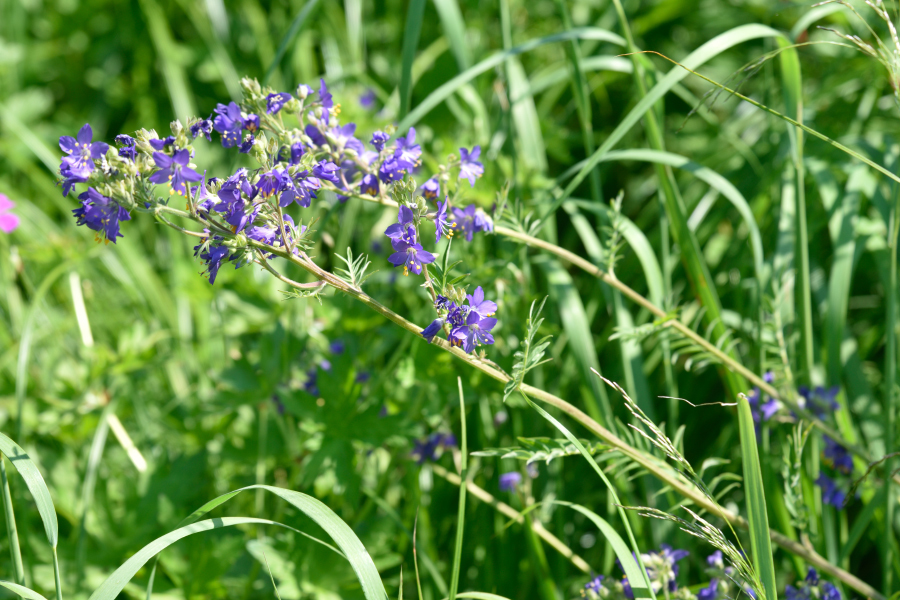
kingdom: Plantae
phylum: Tracheophyta
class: Magnoliopsida
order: Ericales
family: Polemoniaceae
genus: Polemonium
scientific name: Polemonium caeruleum
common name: Jacob's-ladder
